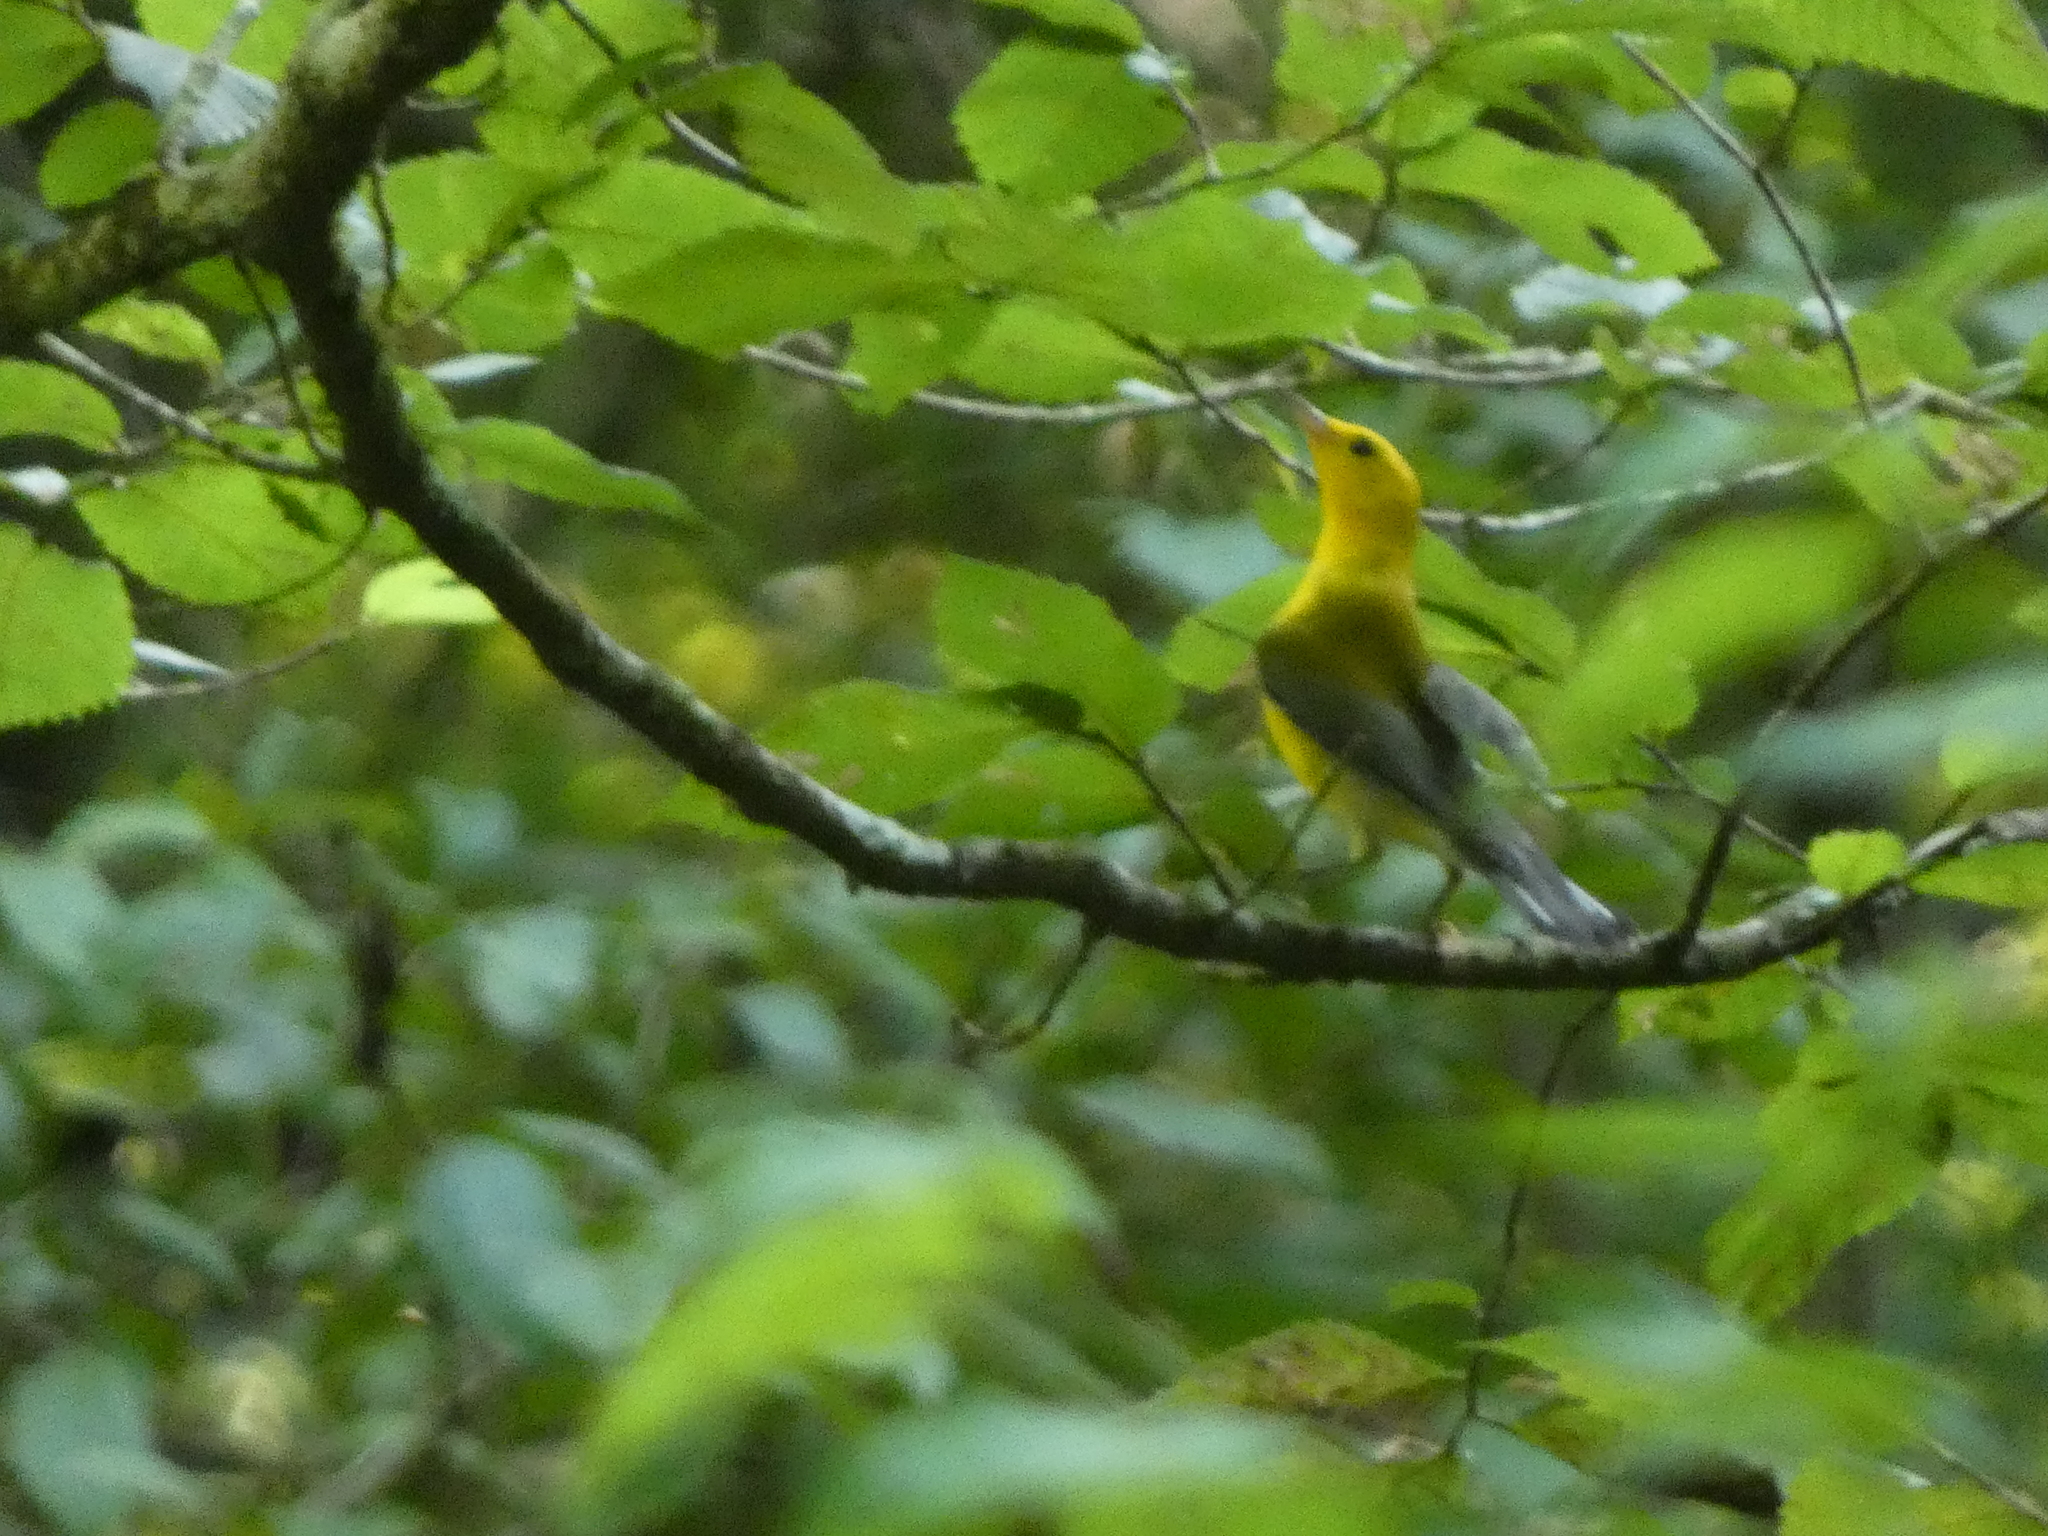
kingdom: Animalia
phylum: Chordata
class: Aves
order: Passeriformes
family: Parulidae
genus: Protonotaria
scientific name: Protonotaria citrea
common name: Prothonotary warbler
